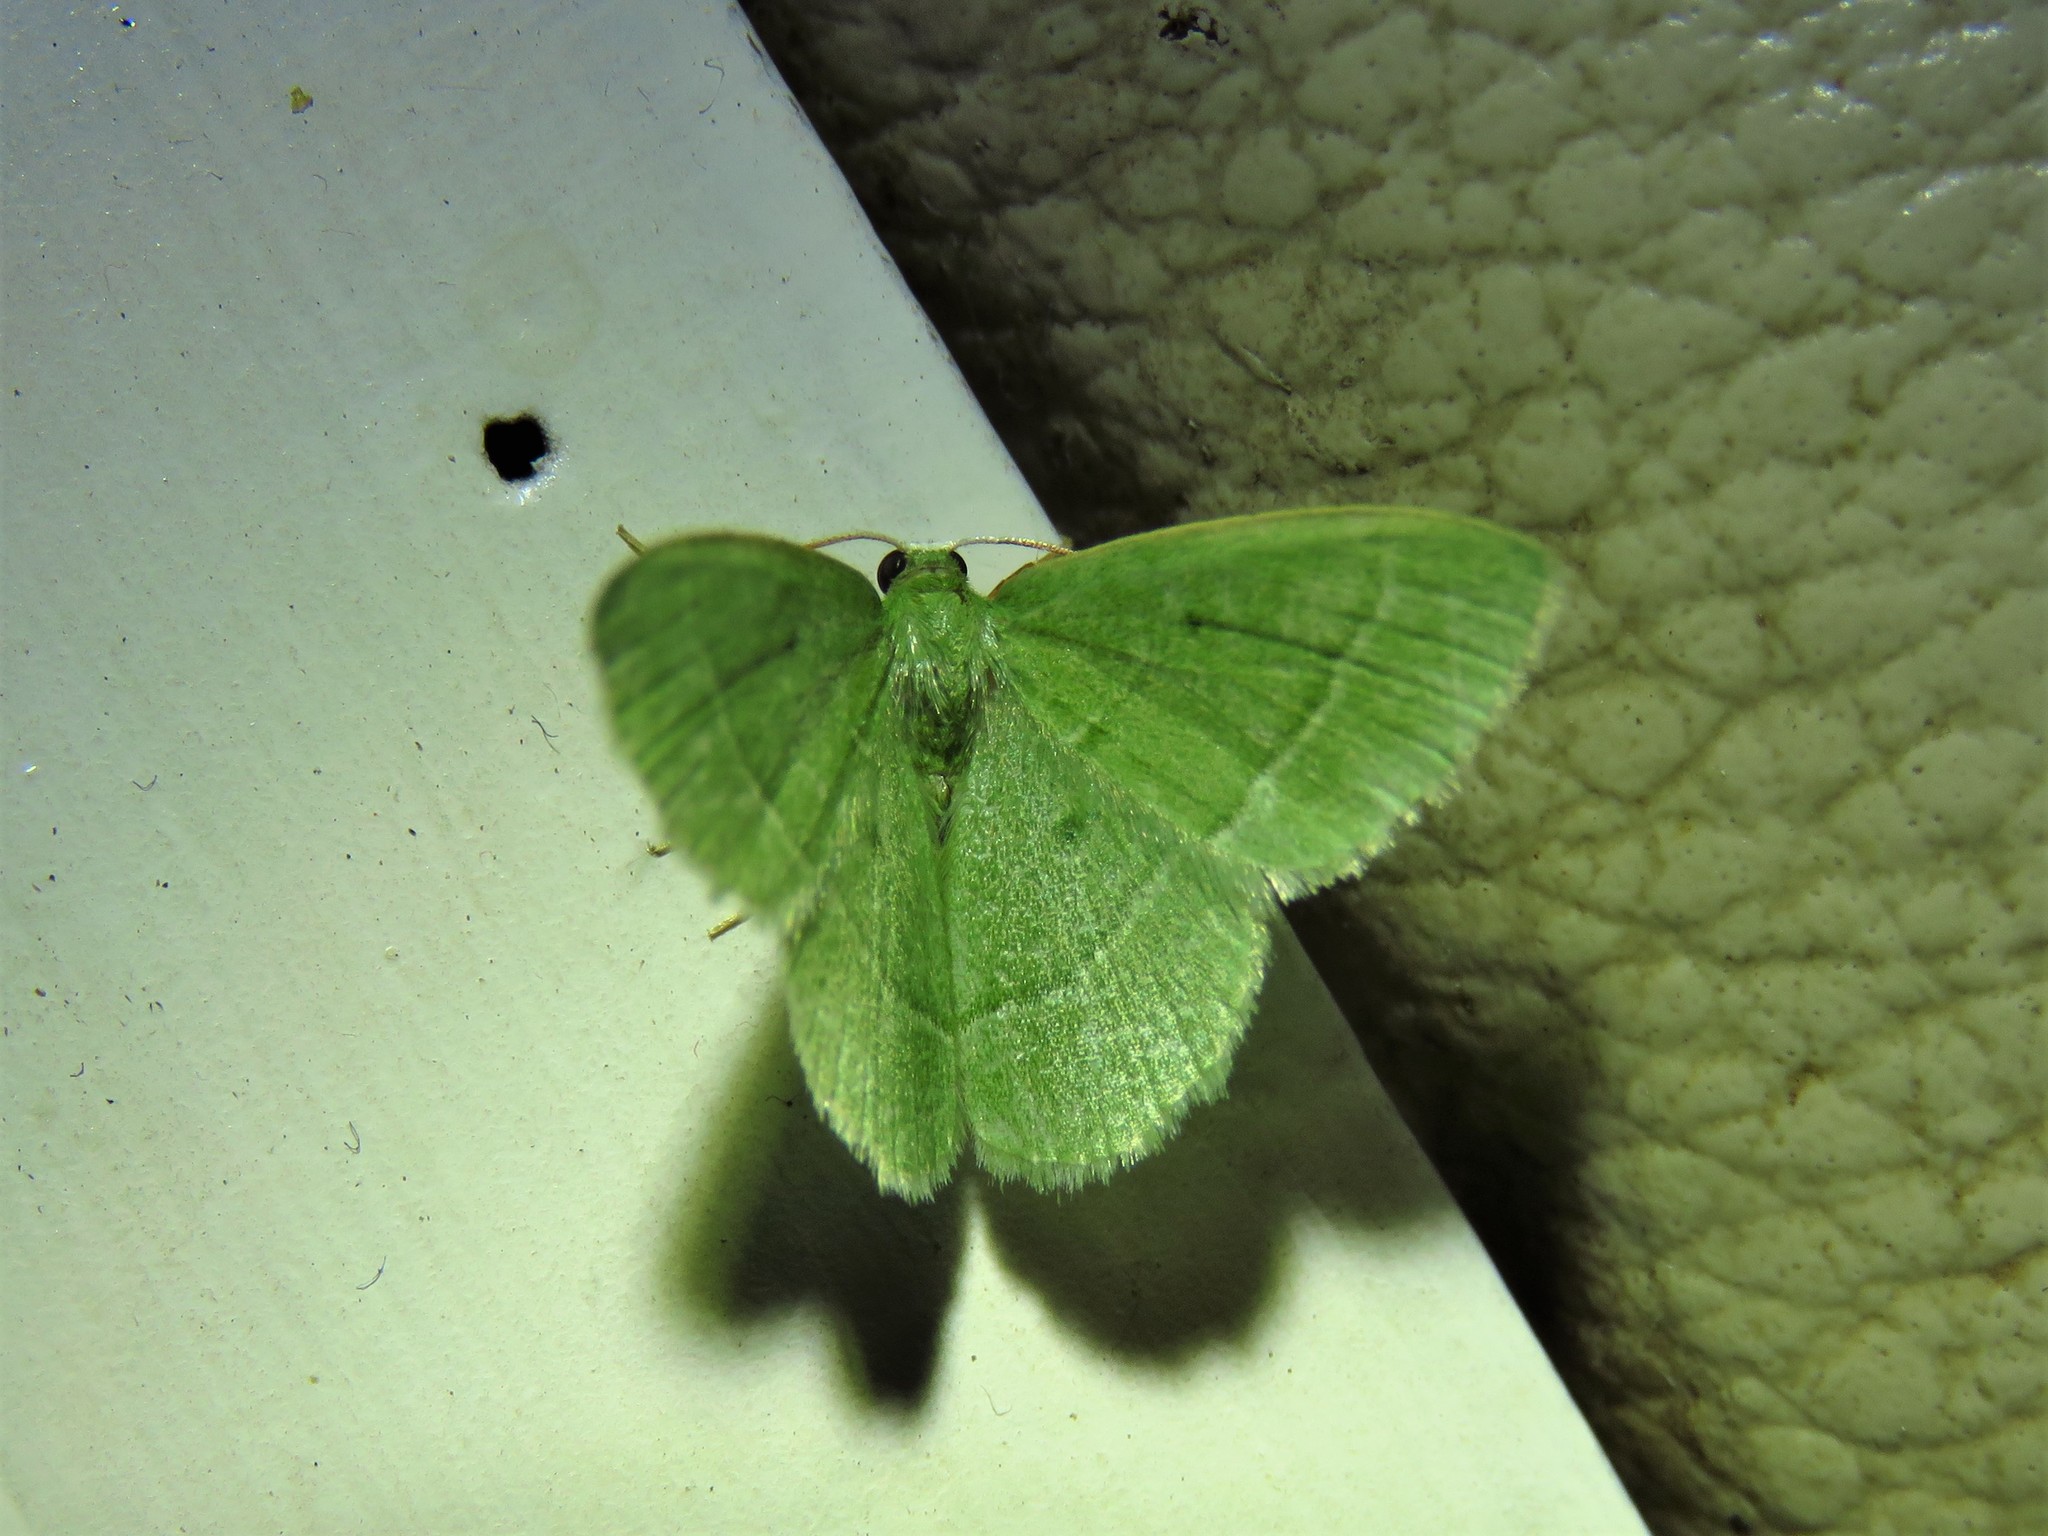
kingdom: Animalia
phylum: Arthropoda
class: Insecta
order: Lepidoptera
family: Geometridae
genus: Chlorissa
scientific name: Chlorissa attenuata
